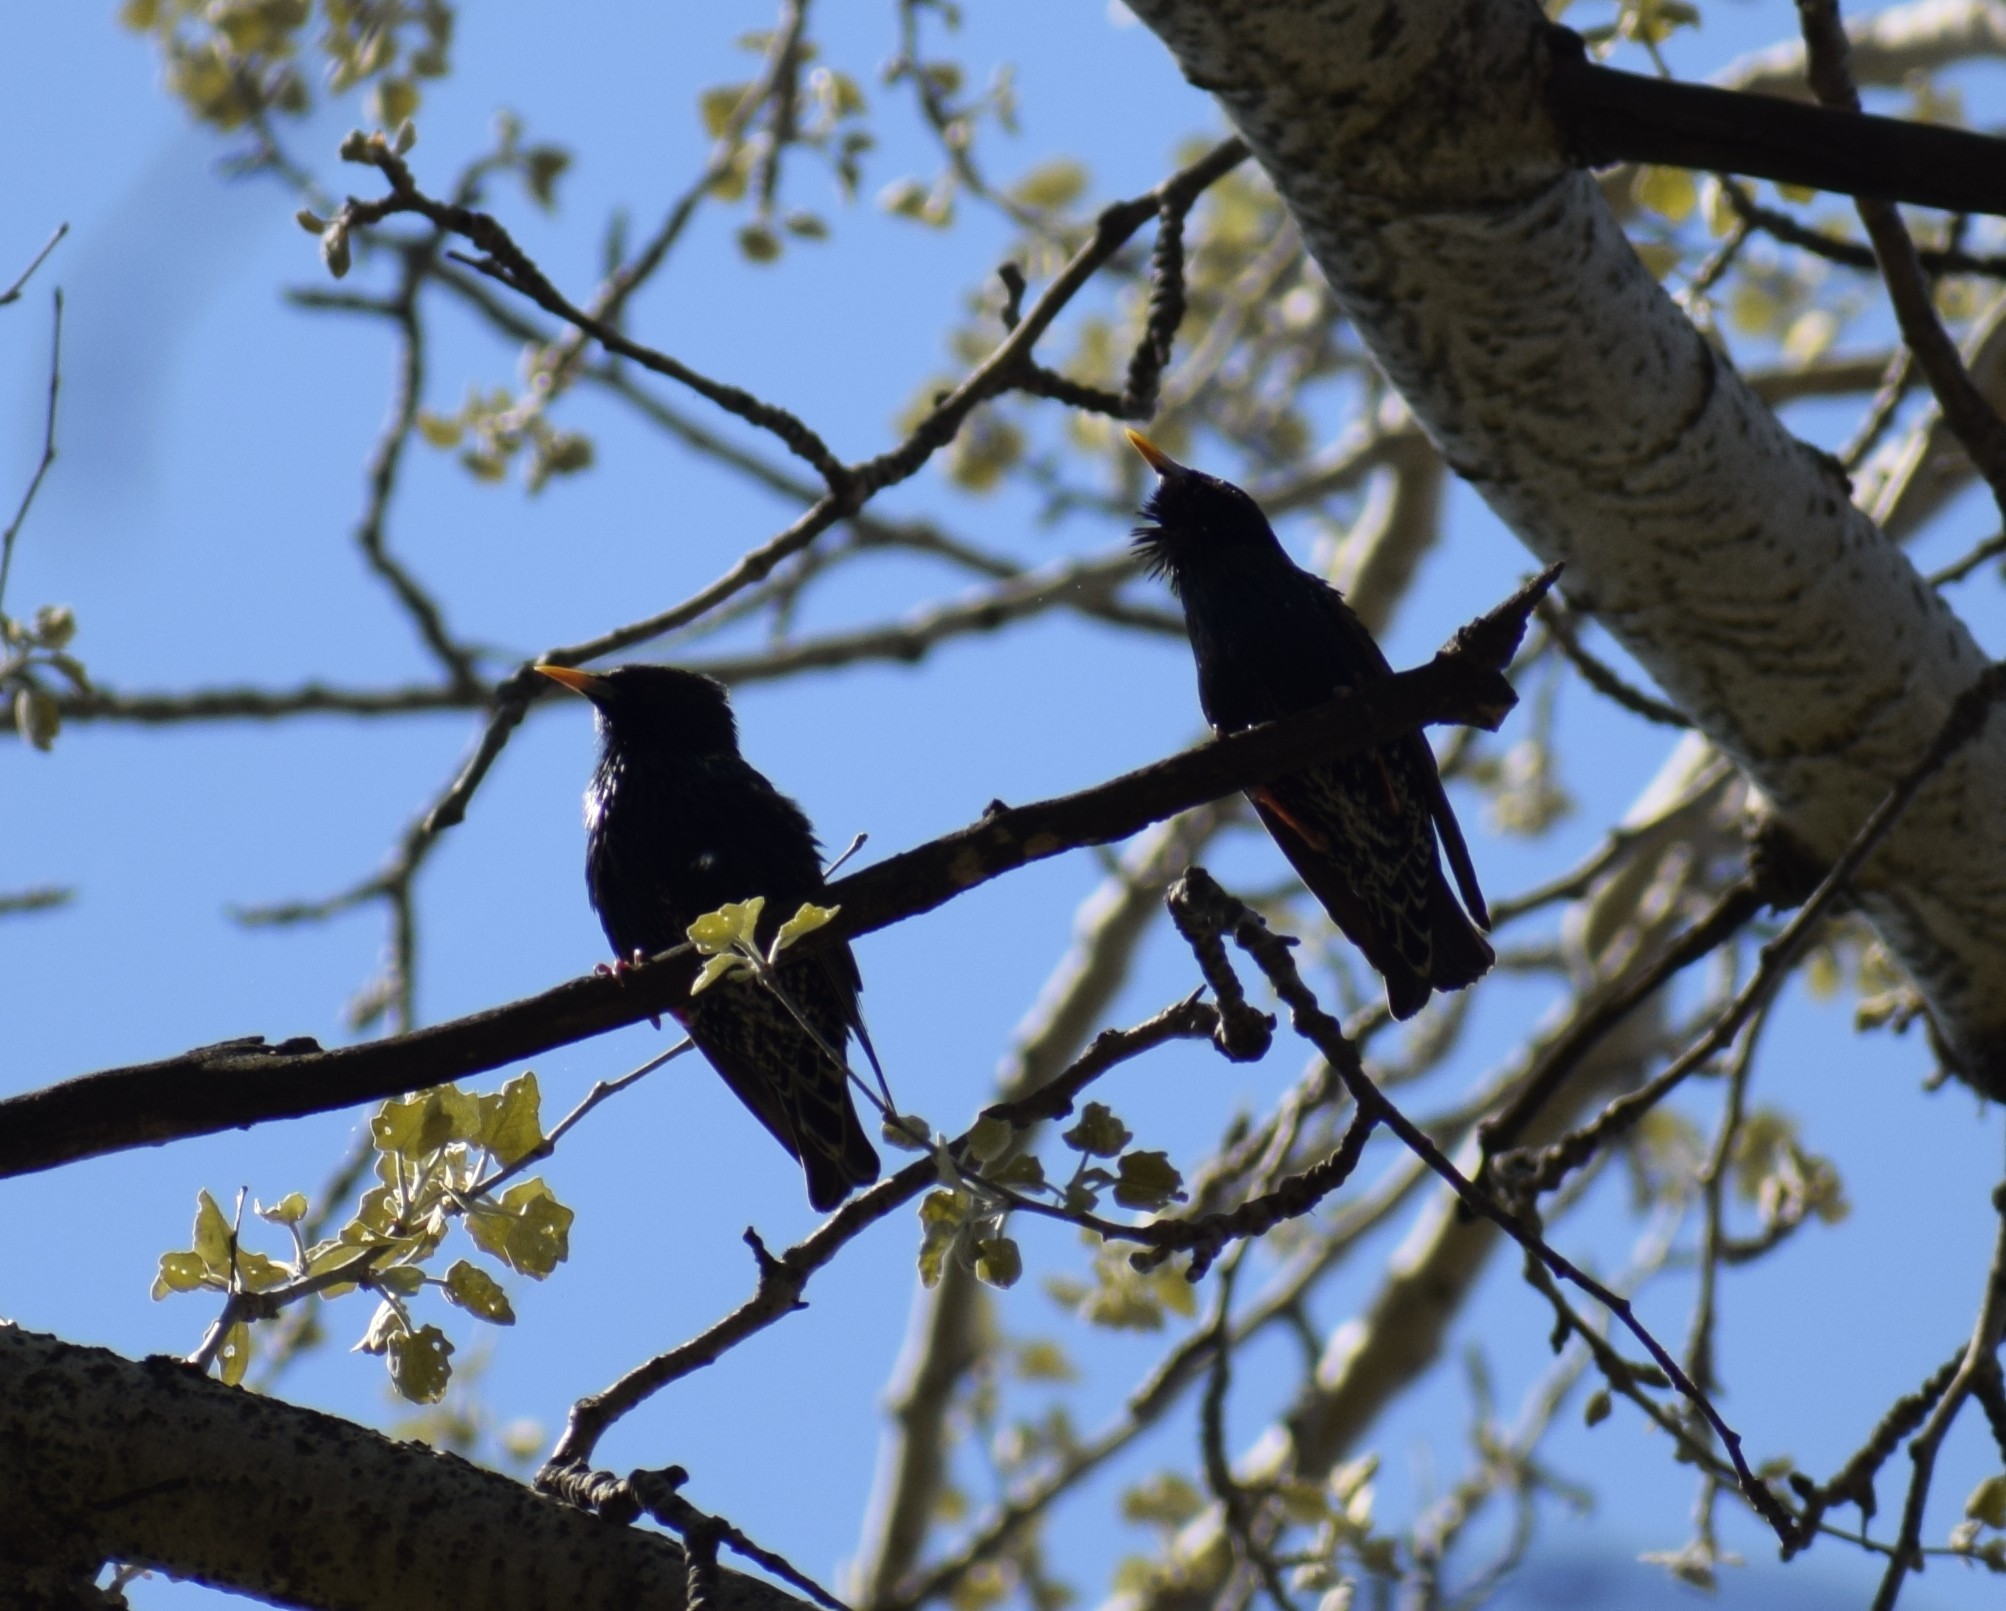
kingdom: Animalia
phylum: Chordata
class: Aves
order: Passeriformes
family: Sturnidae
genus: Sturnus
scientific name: Sturnus vulgaris
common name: Common starling
